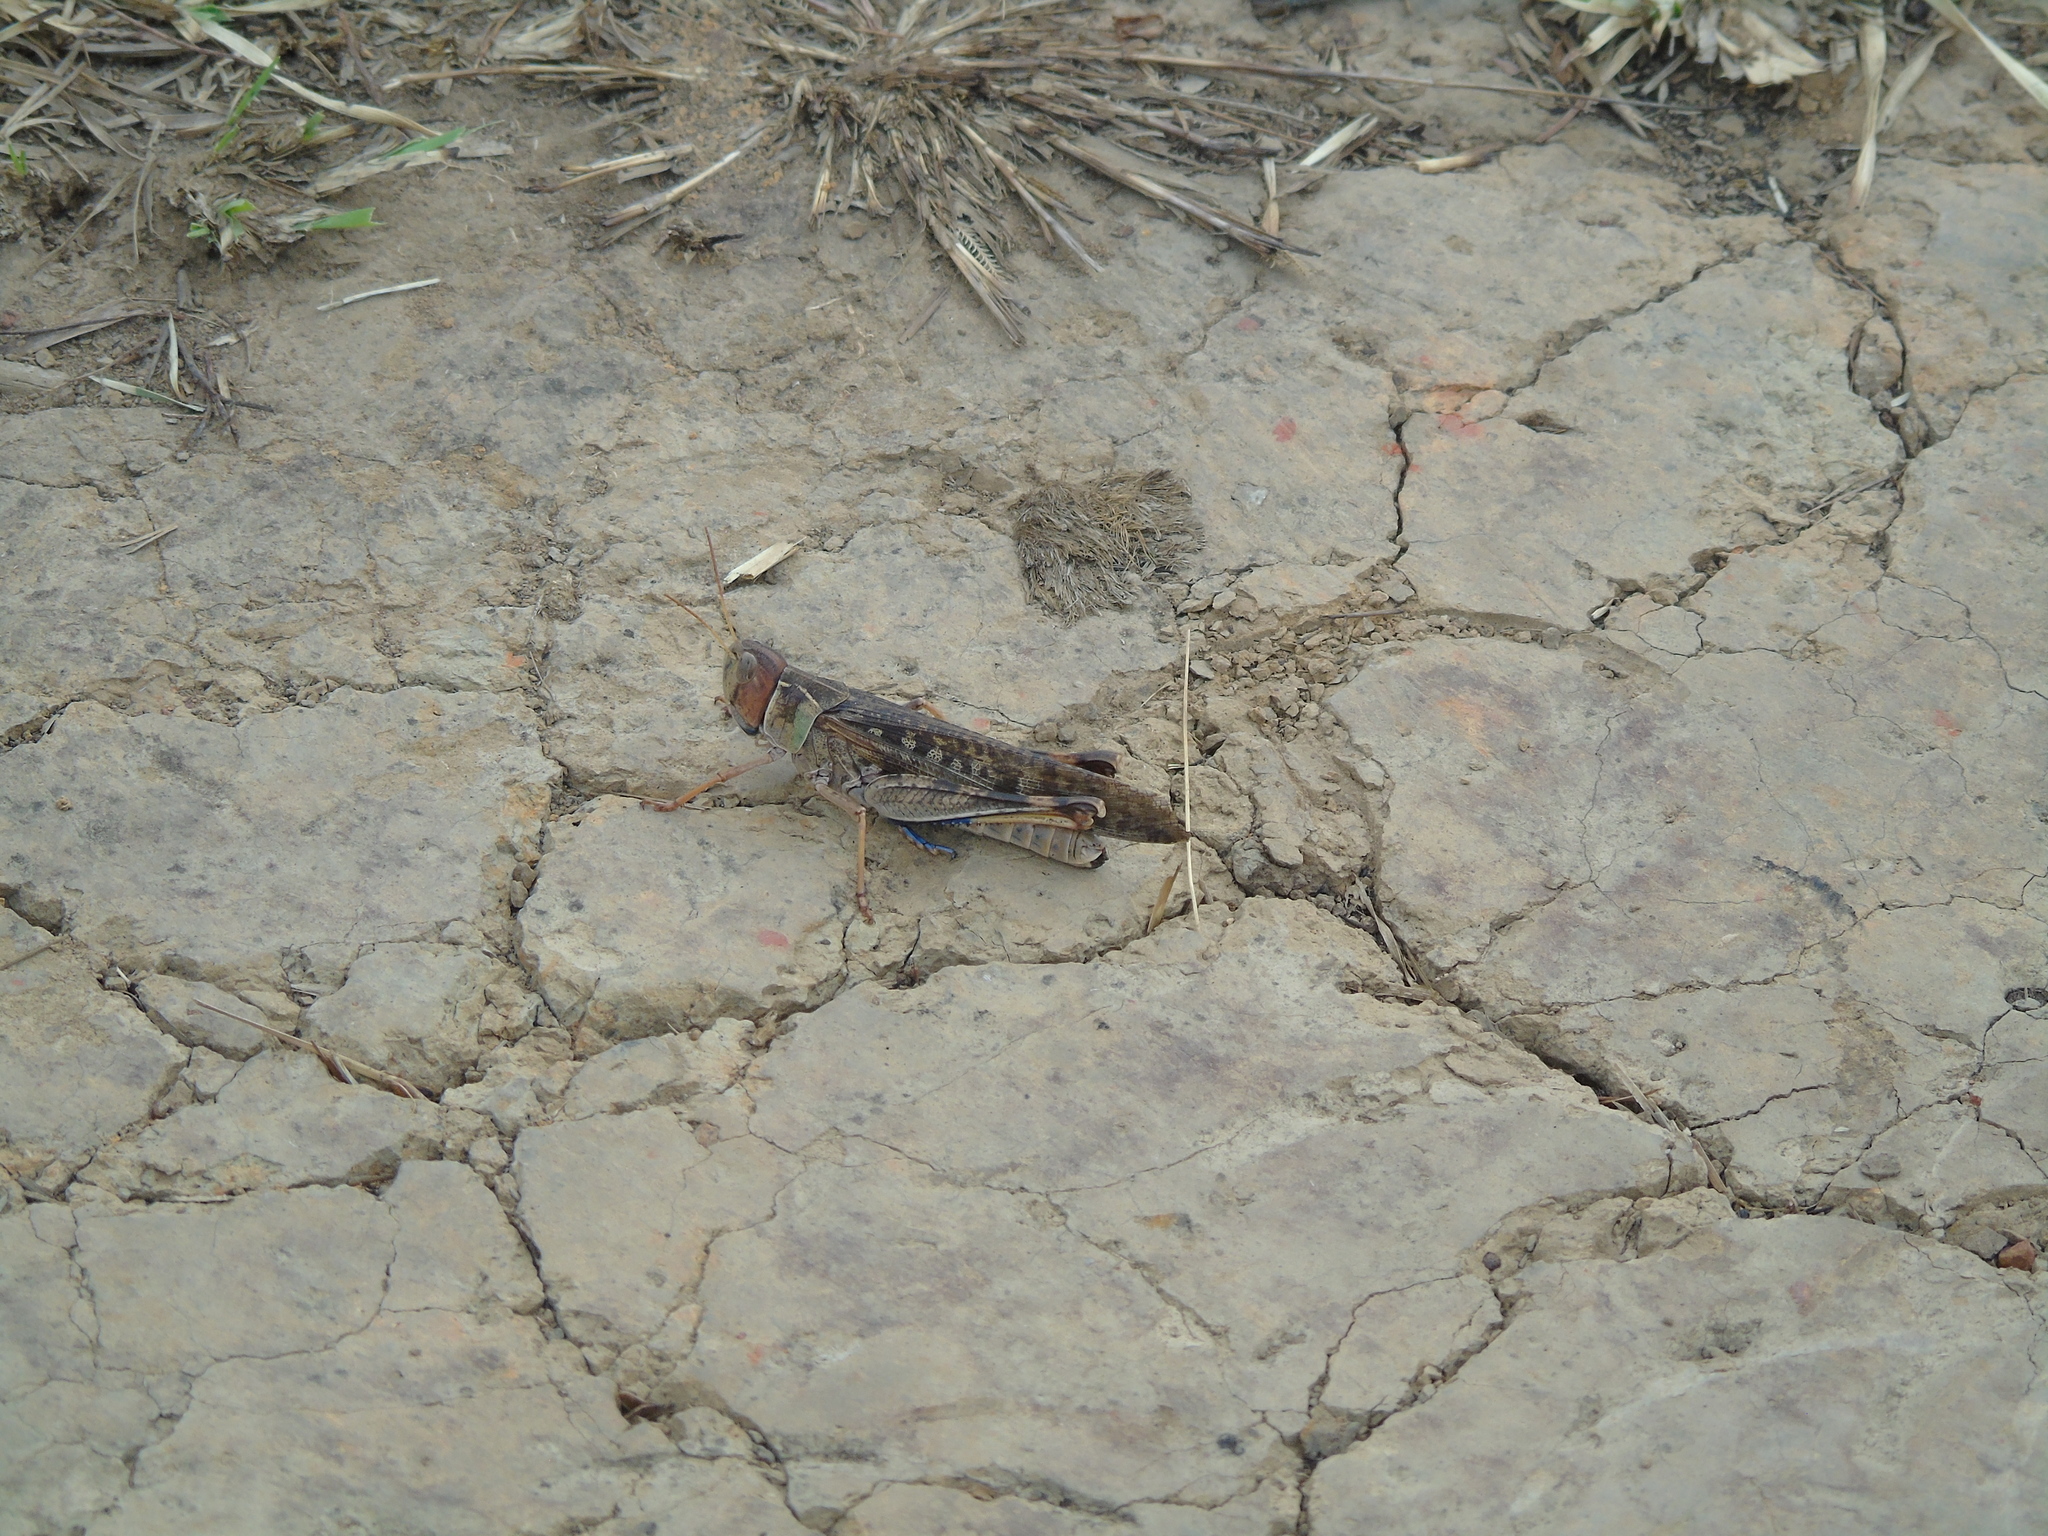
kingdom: Animalia
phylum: Arthropoda
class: Insecta
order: Orthoptera
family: Acrididae
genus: Rhammatocerus
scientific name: Rhammatocerus schistocercoides
